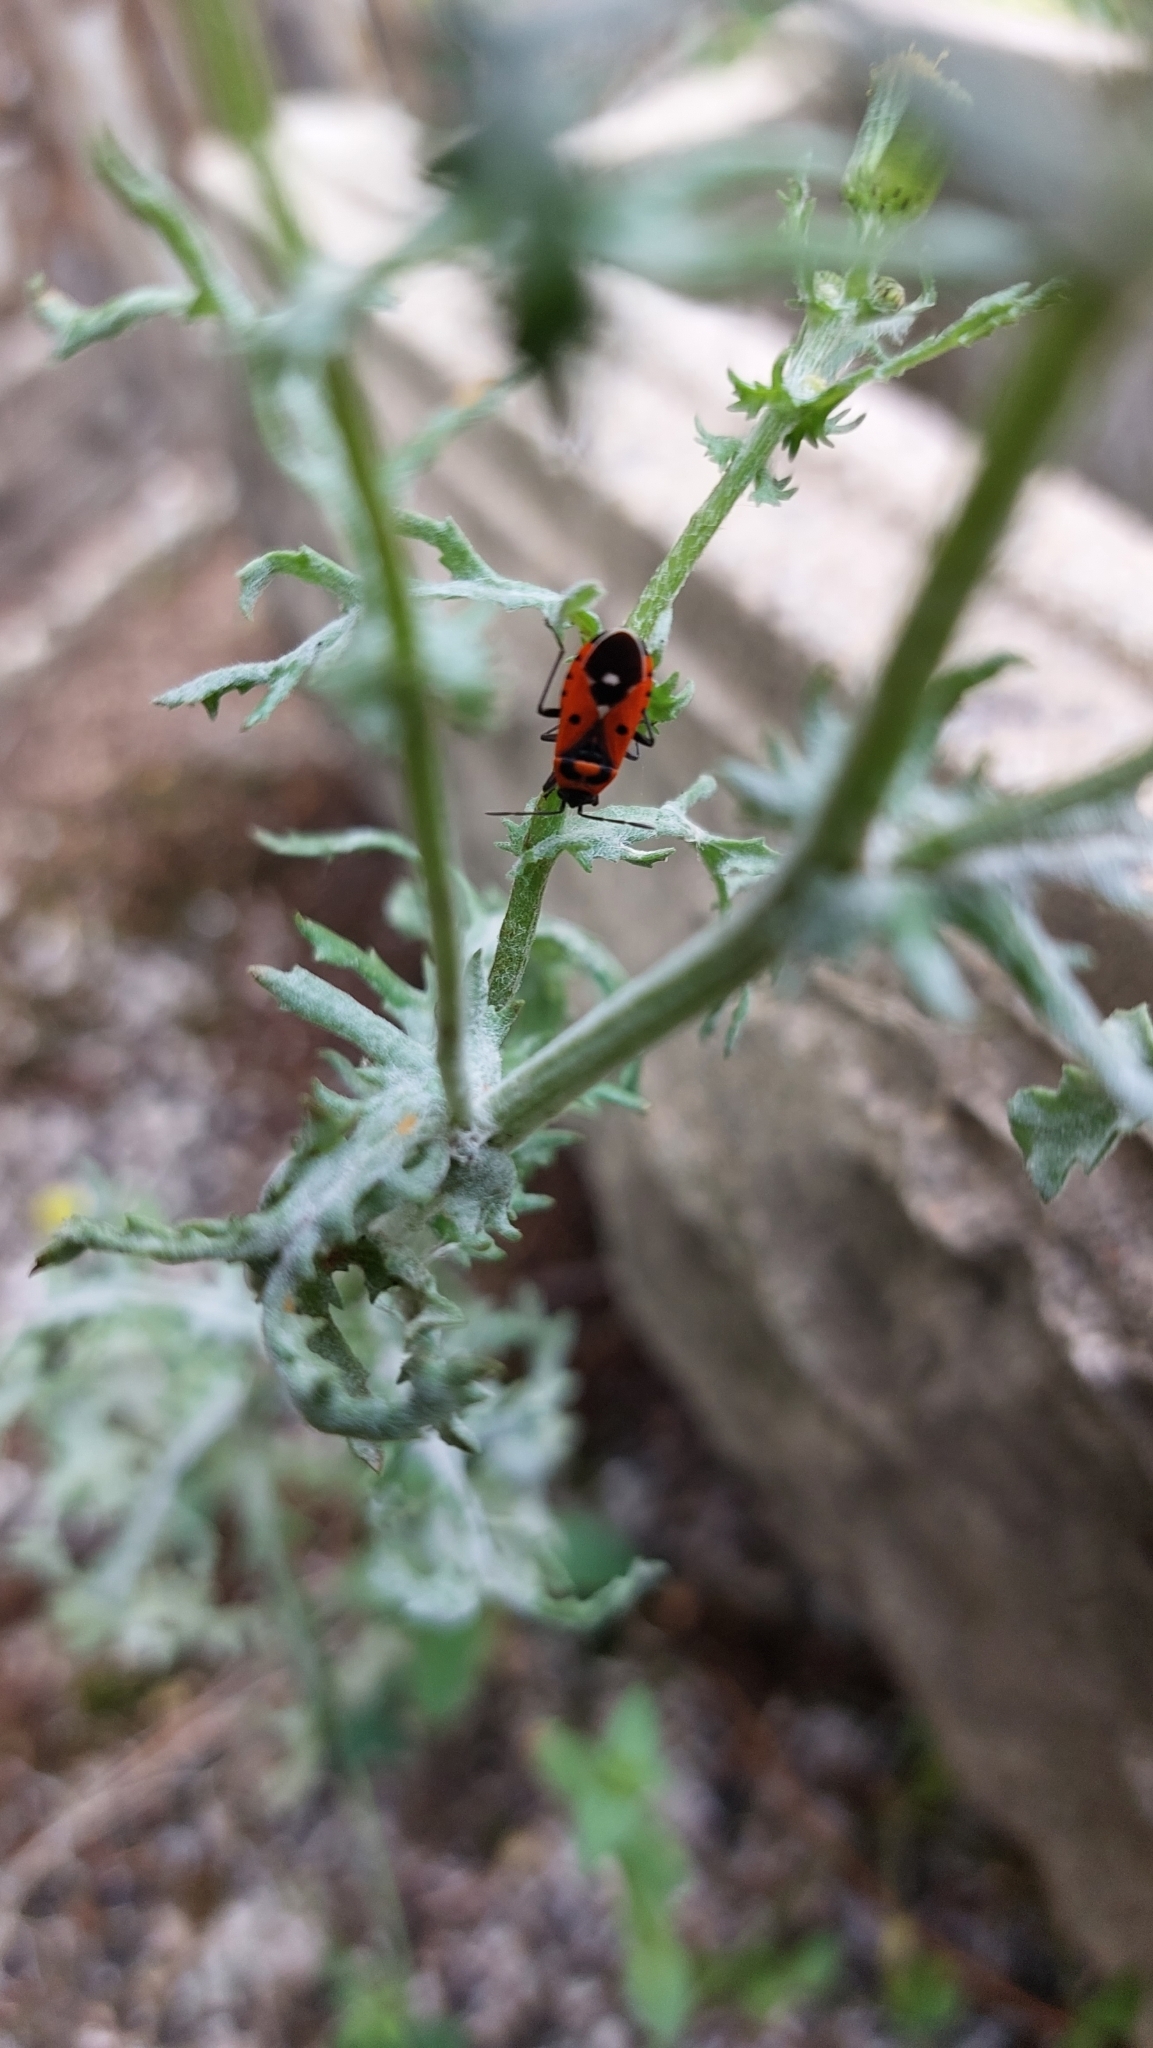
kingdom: Animalia
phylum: Arthropoda
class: Insecta
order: Hemiptera
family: Lygaeidae
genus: Melanocoryphus
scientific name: Melanocoryphus albomaculatus
